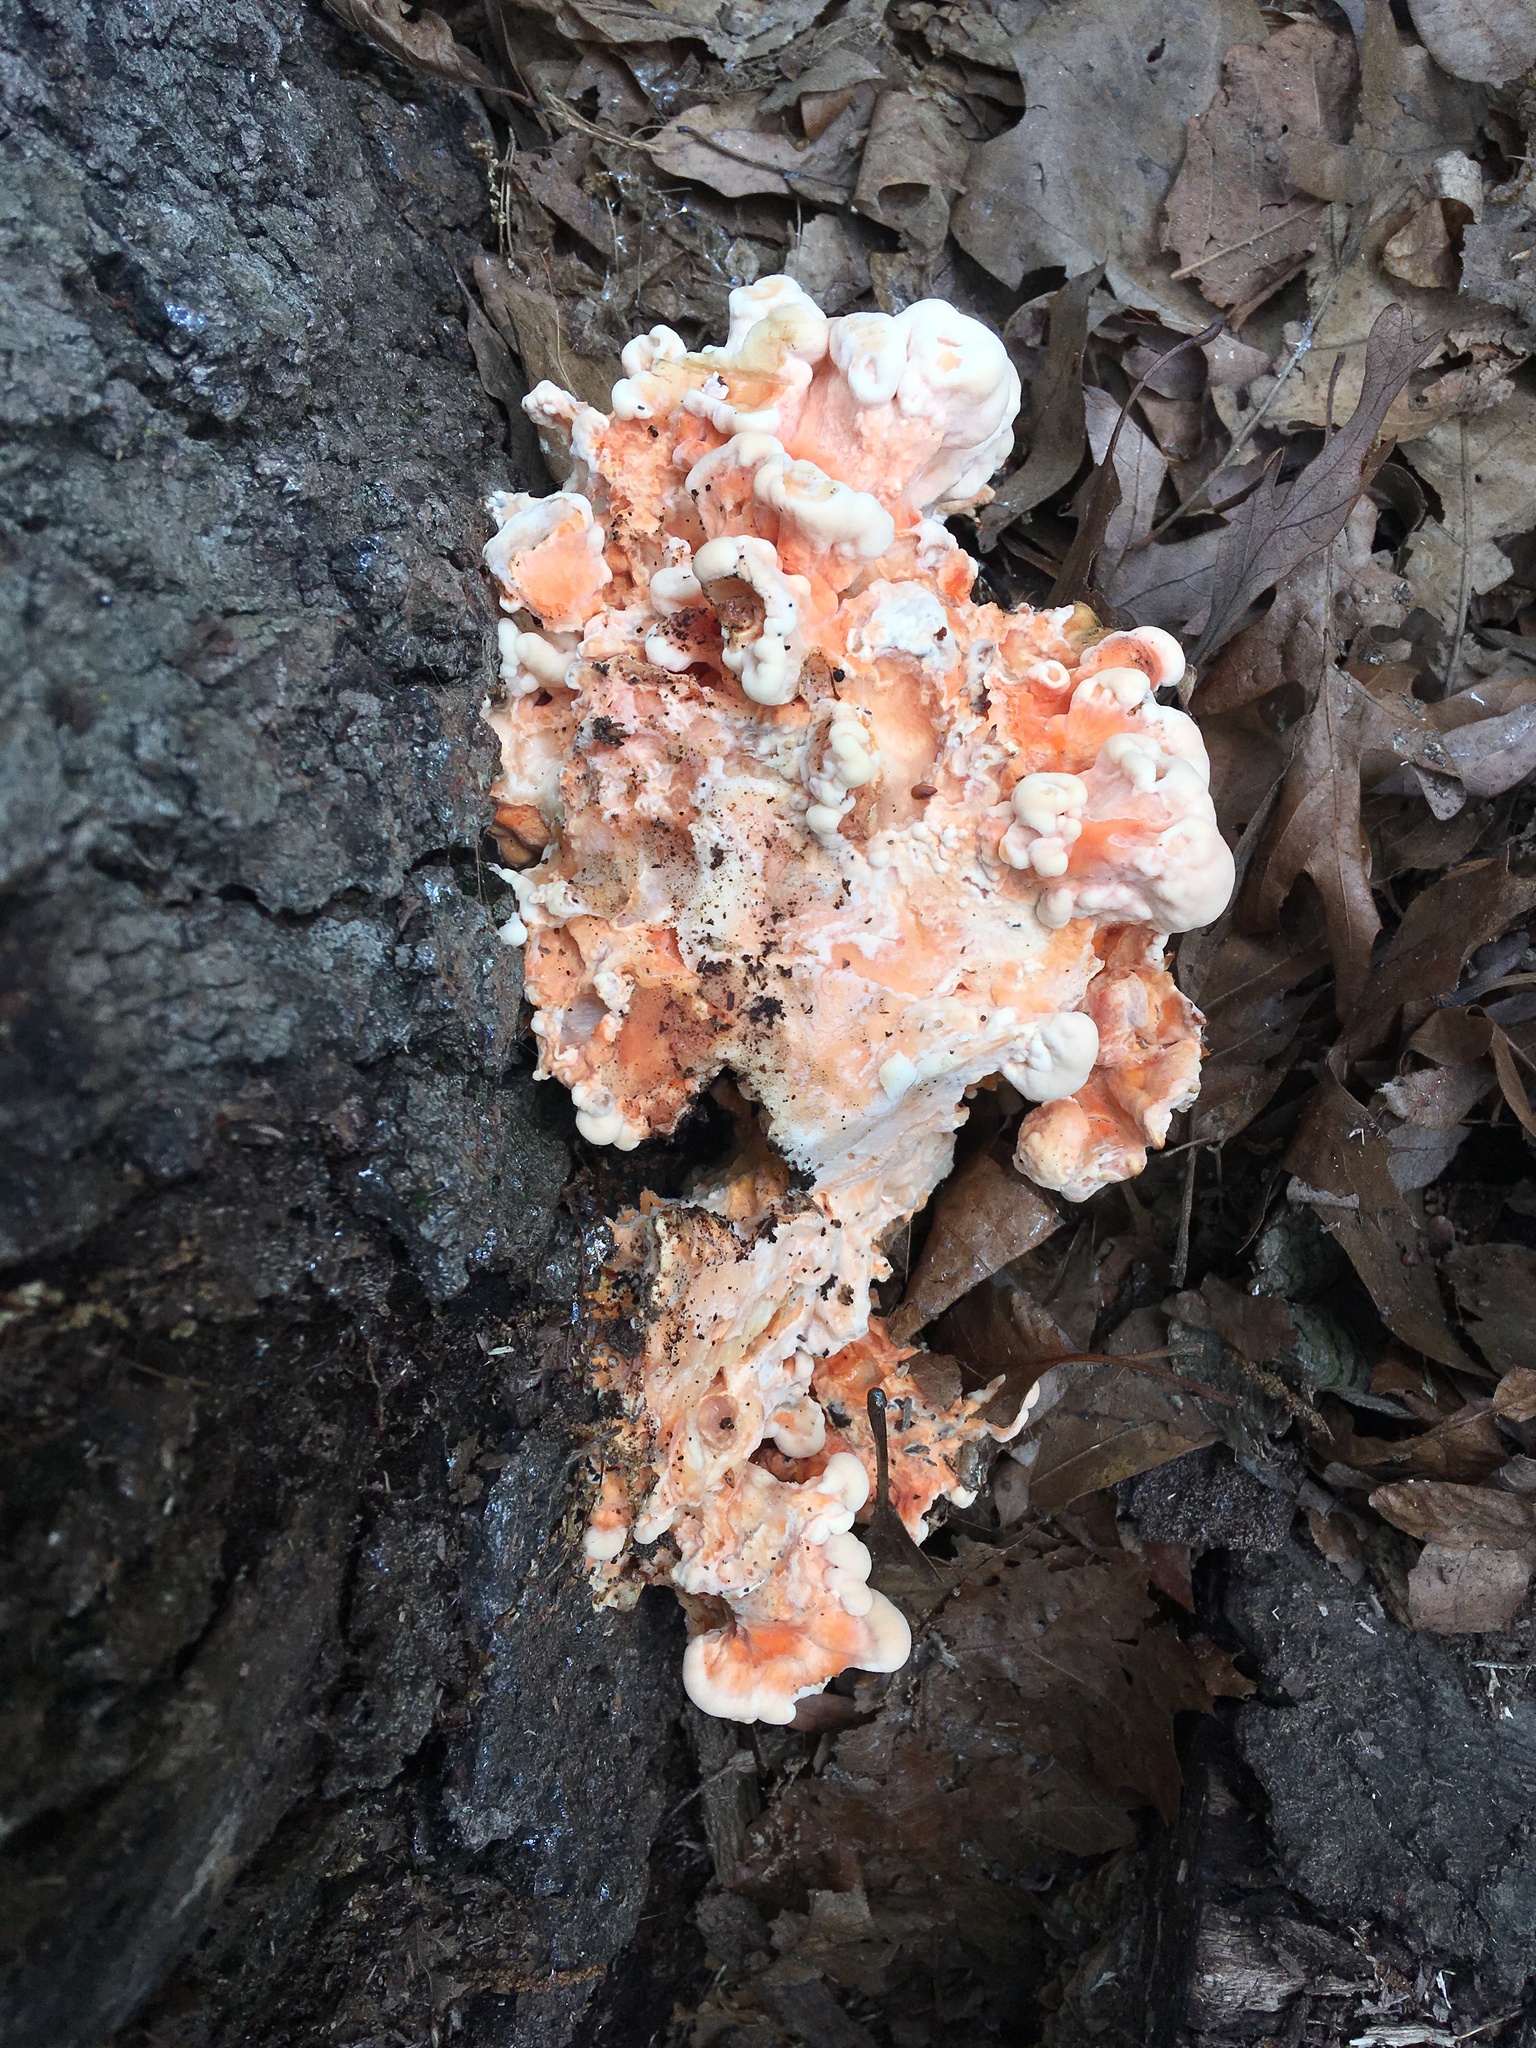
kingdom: Fungi
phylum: Basidiomycota
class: Agaricomycetes
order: Polyporales
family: Laetiporaceae
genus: Laetiporus
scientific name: Laetiporus sulphureus
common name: Chicken of the woods
